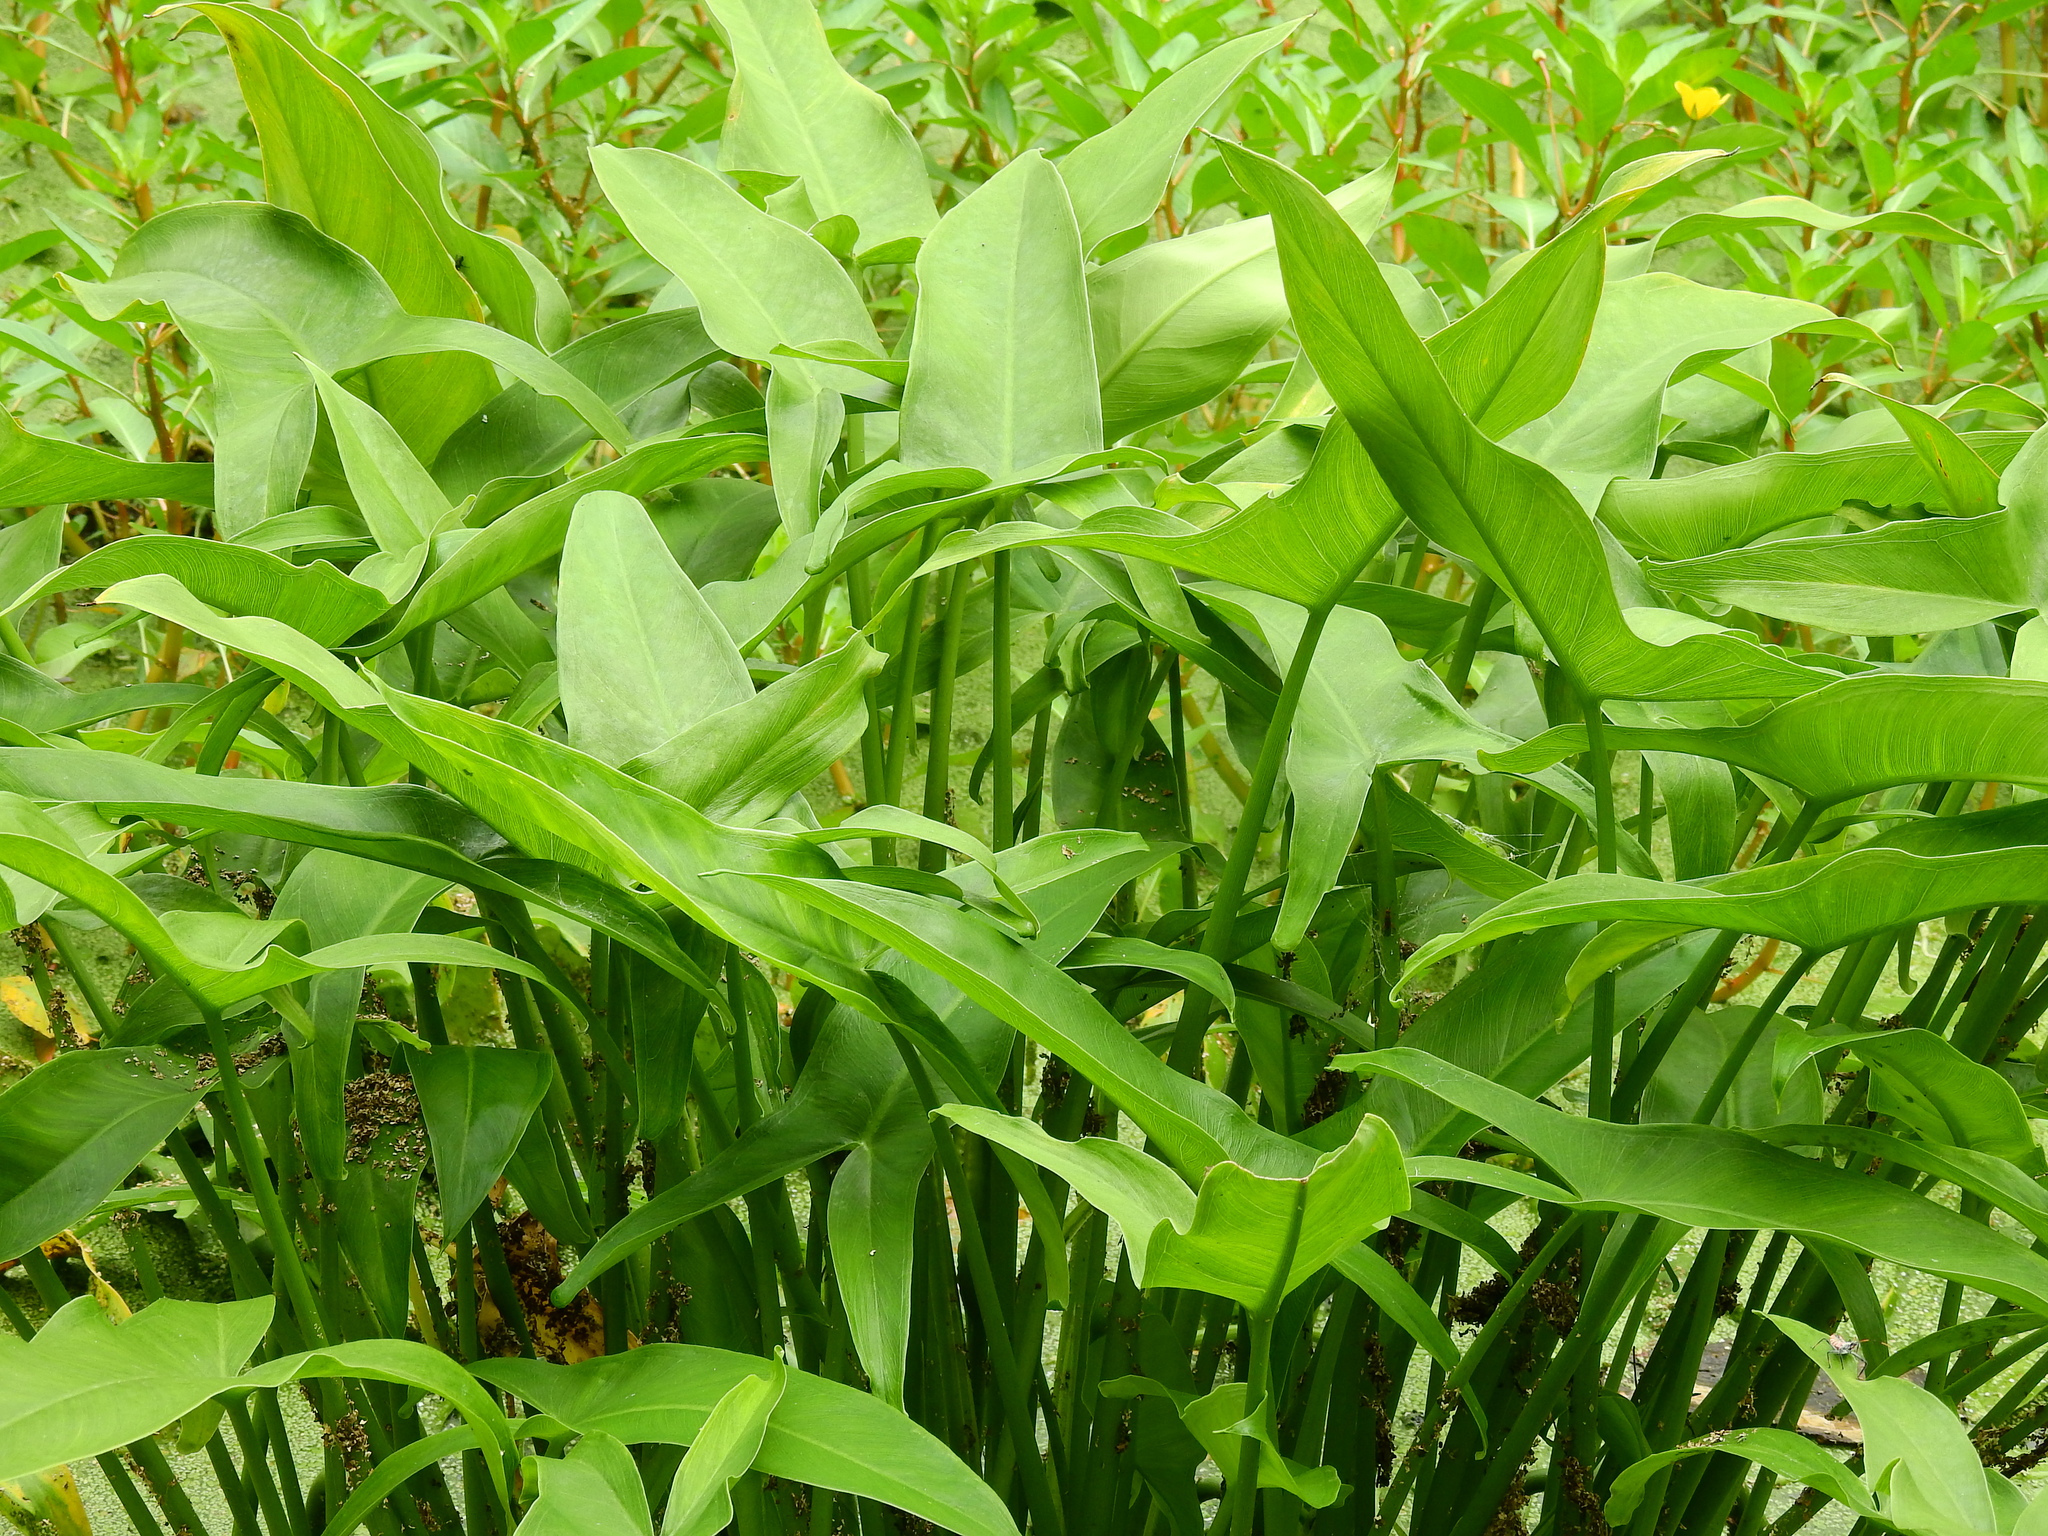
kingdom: Plantae
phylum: Tracheophyta
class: Liliopsida
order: Alismatales
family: Araceae
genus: Peltandra
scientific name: Peltandra virginica
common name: Arrow arum
